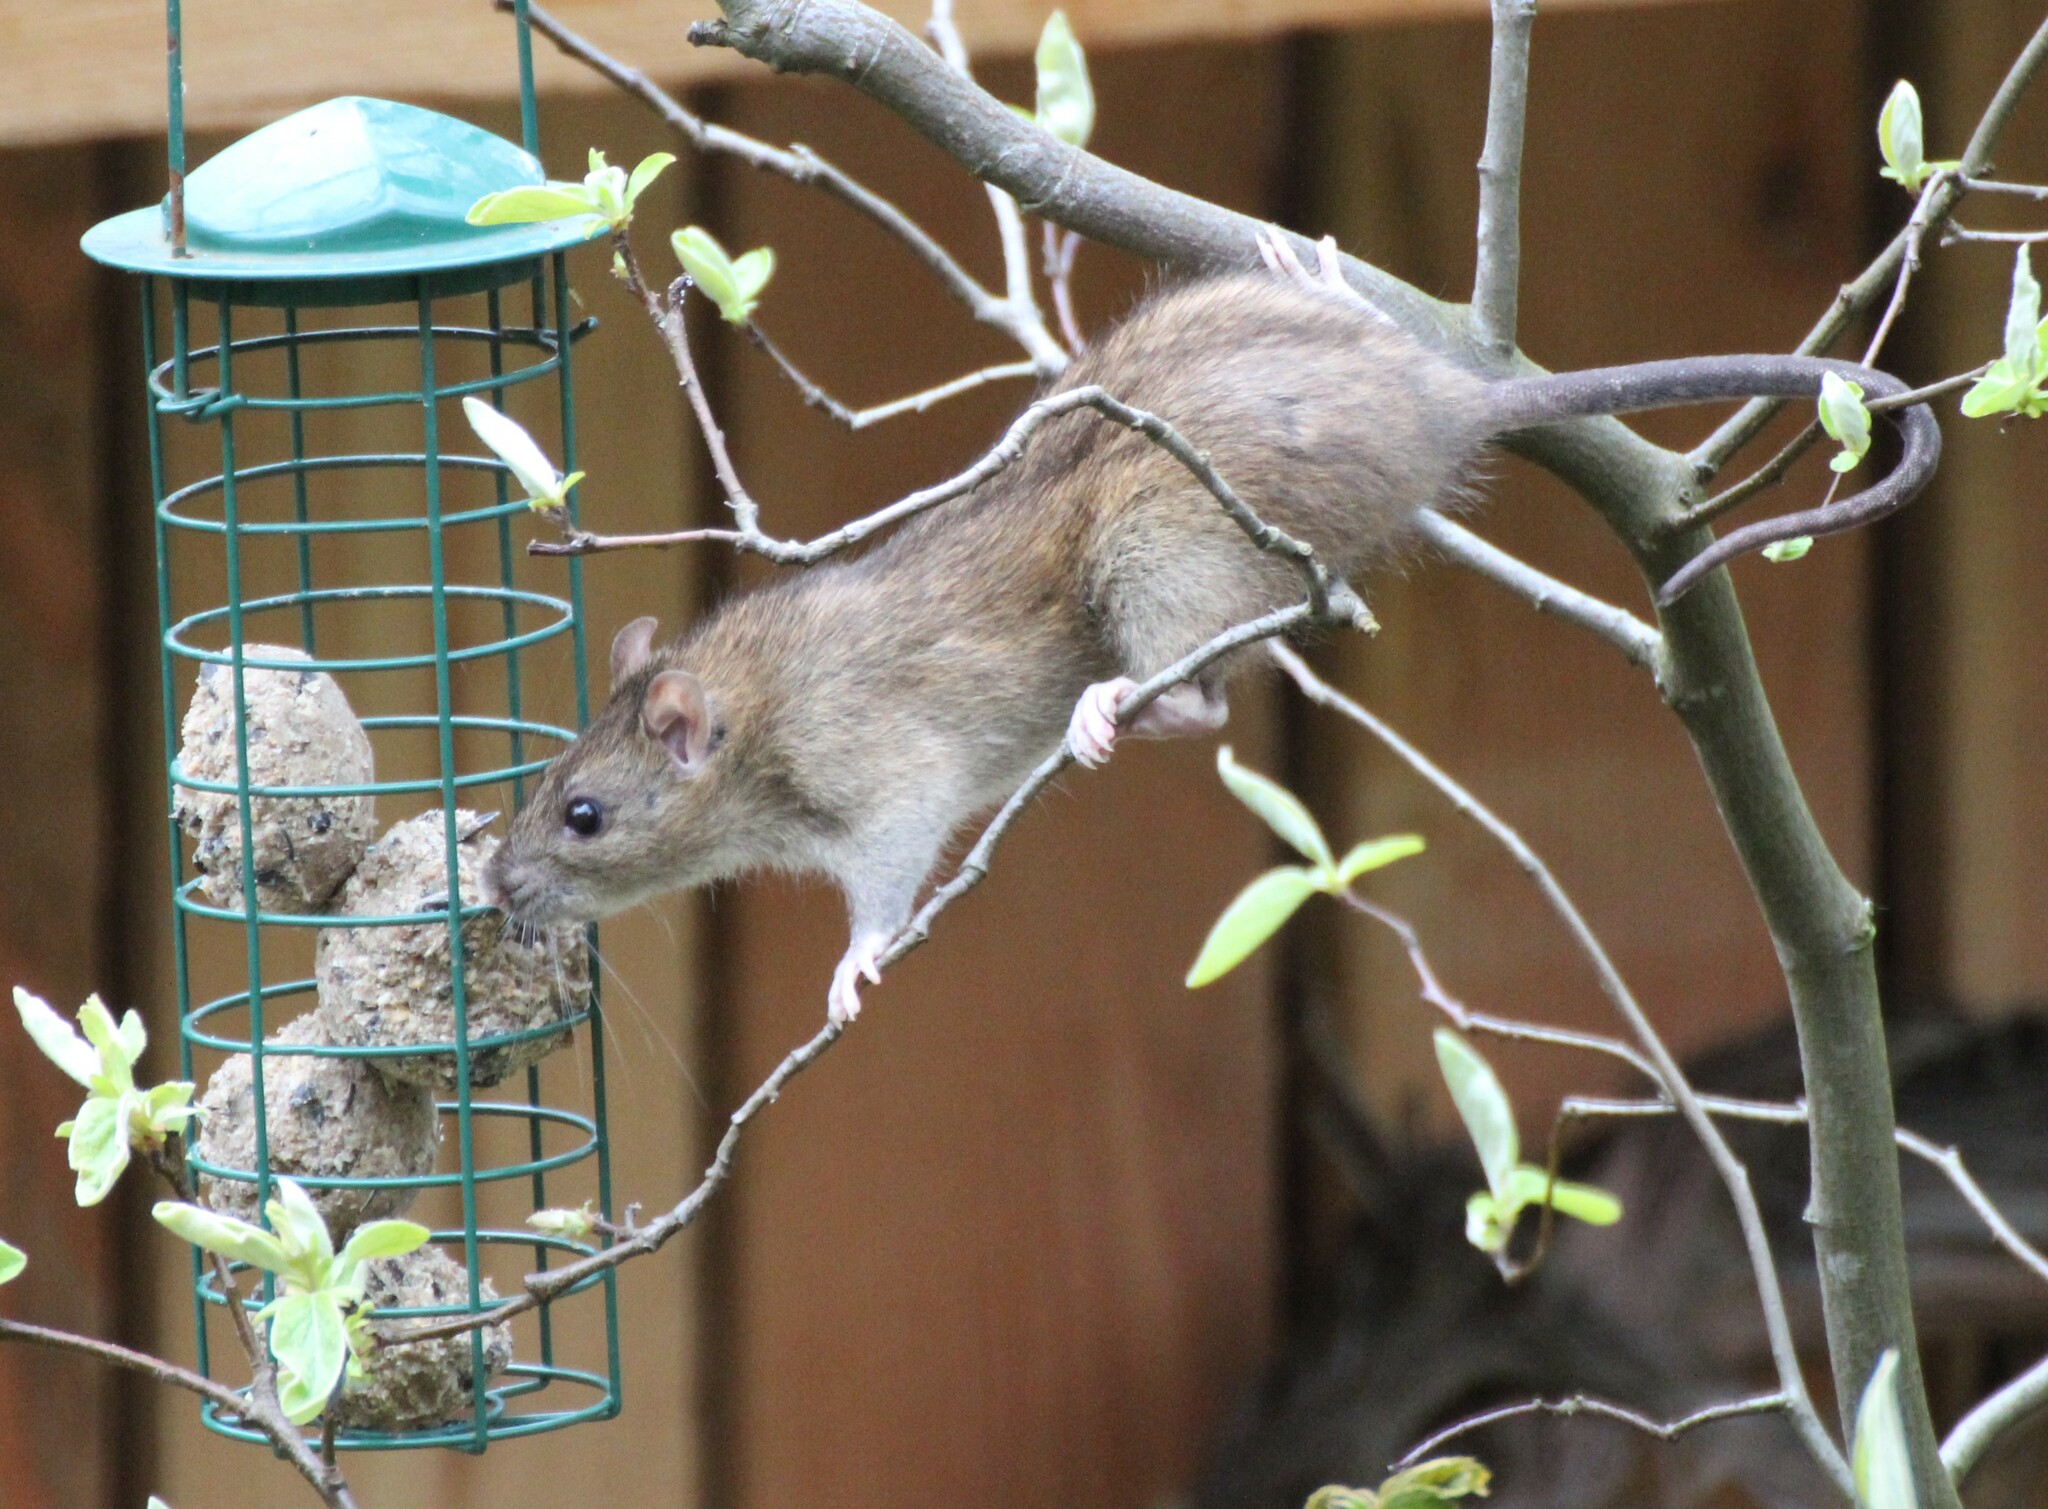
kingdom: Animalia
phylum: Chordata
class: Mammalia
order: Rodentia
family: Muridae
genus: Rattus
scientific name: Rattus norvegicus
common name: Brown rat
